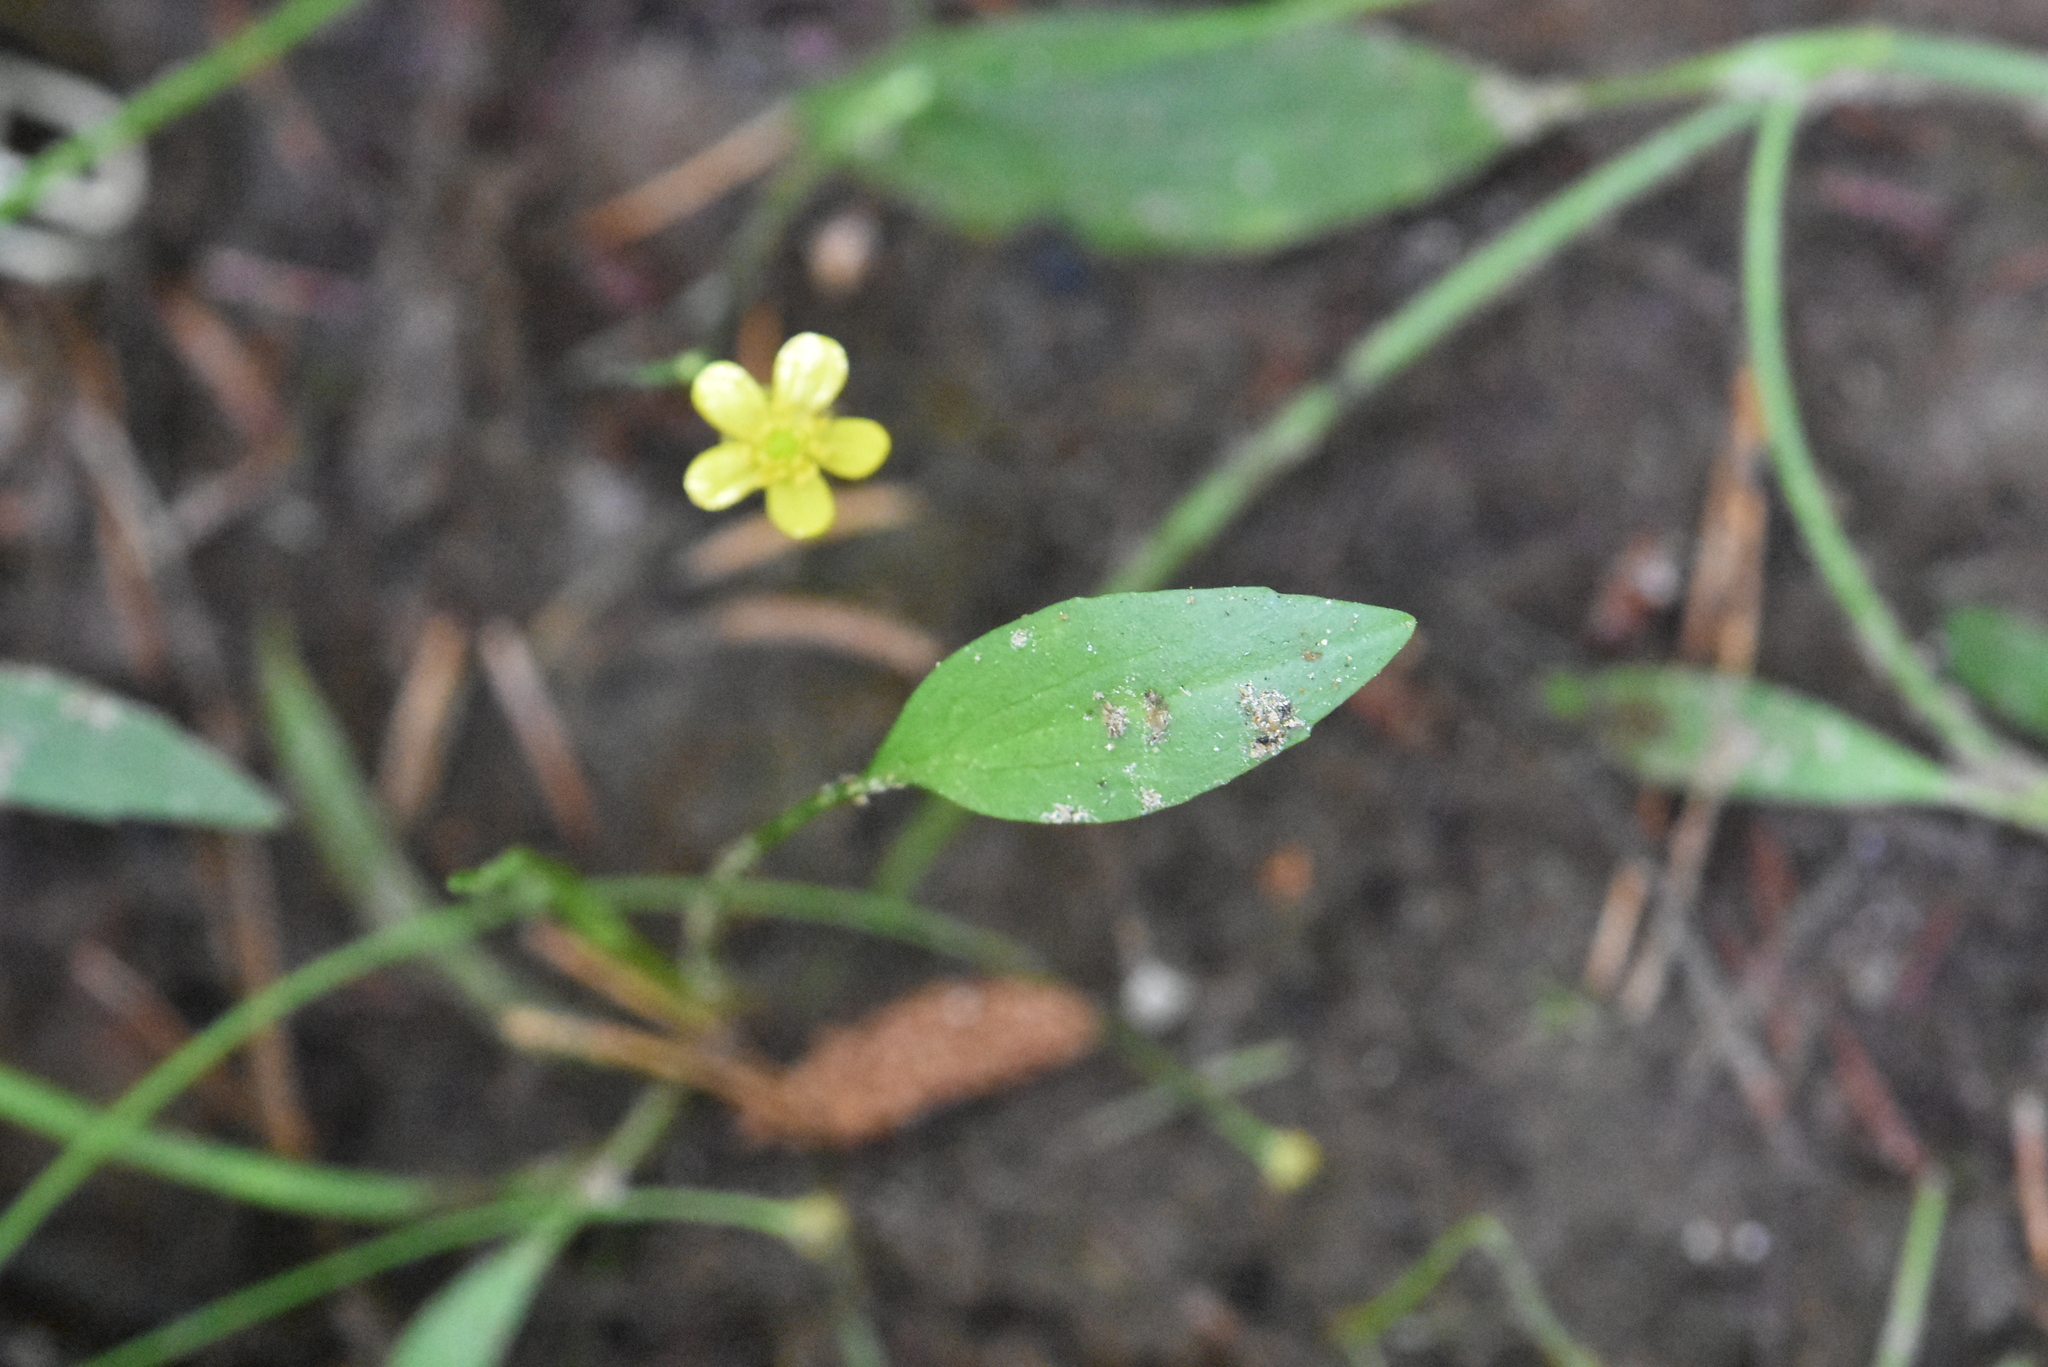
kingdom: Plantae
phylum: Tracheophyta
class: Magnoliopsida
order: Ranunculales
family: Ranunculaceae
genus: Ranunculus
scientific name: Ranunculus flammula
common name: Lesser spearwort
